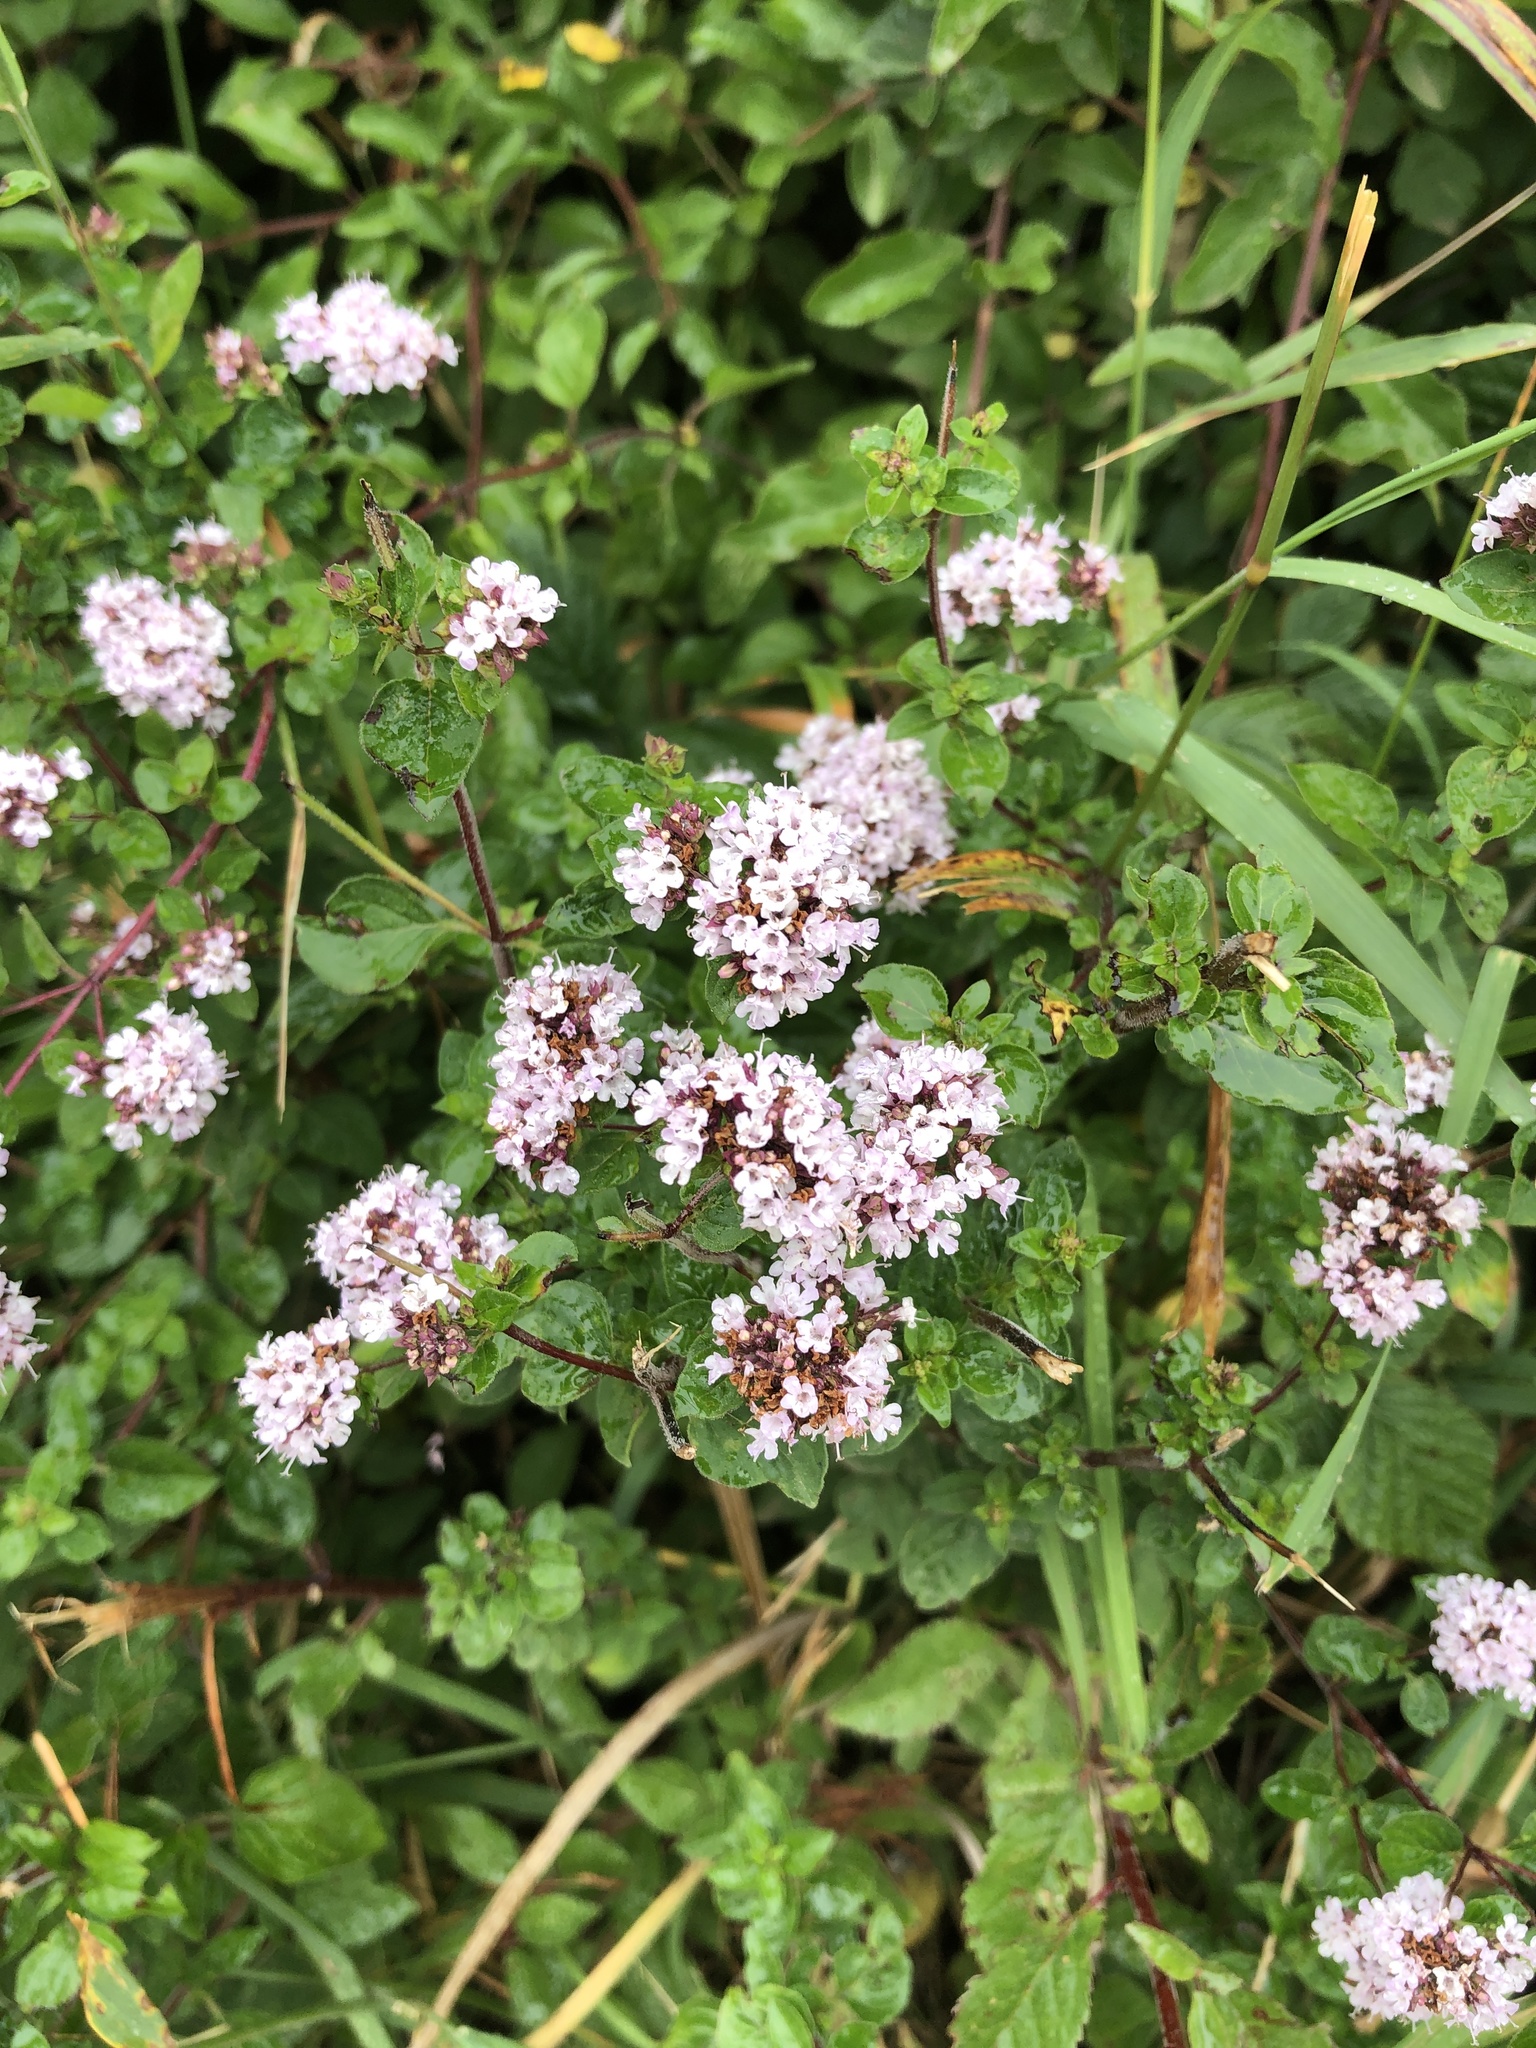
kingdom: Plantae
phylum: Tracheophyta
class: Magnoliopsida
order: Lamiales
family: Lamiaceae
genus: Origanum
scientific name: Origanum vulgare
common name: Wild marjoram
